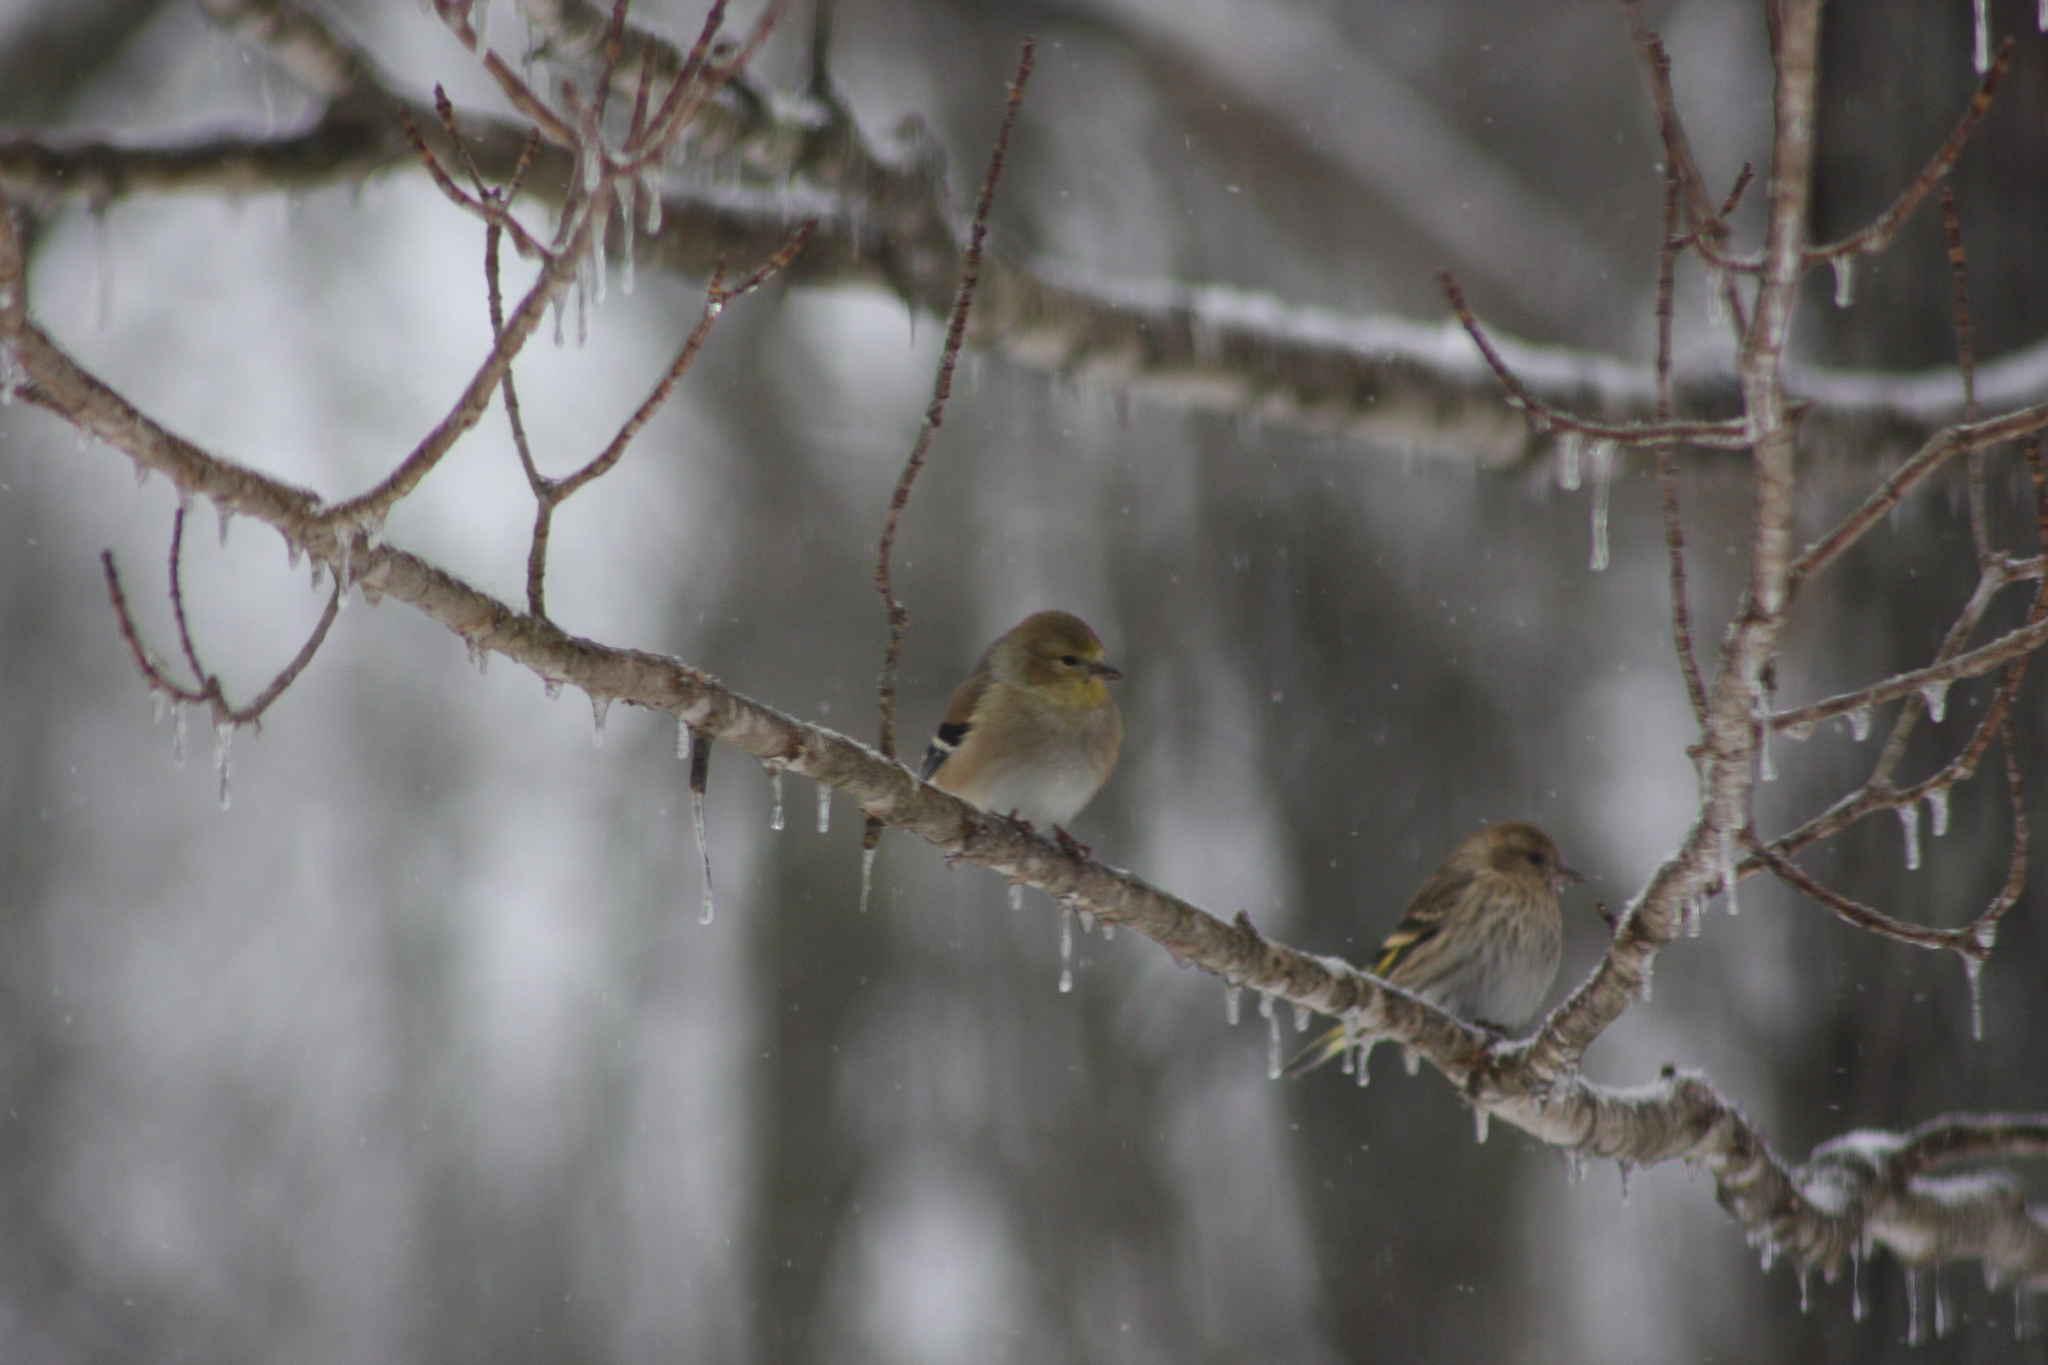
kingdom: Animalia
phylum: Chordata
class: Aves
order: Passeriformes
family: Fringillidae
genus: Spinus
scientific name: Spinus tristis
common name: American goldfinch
